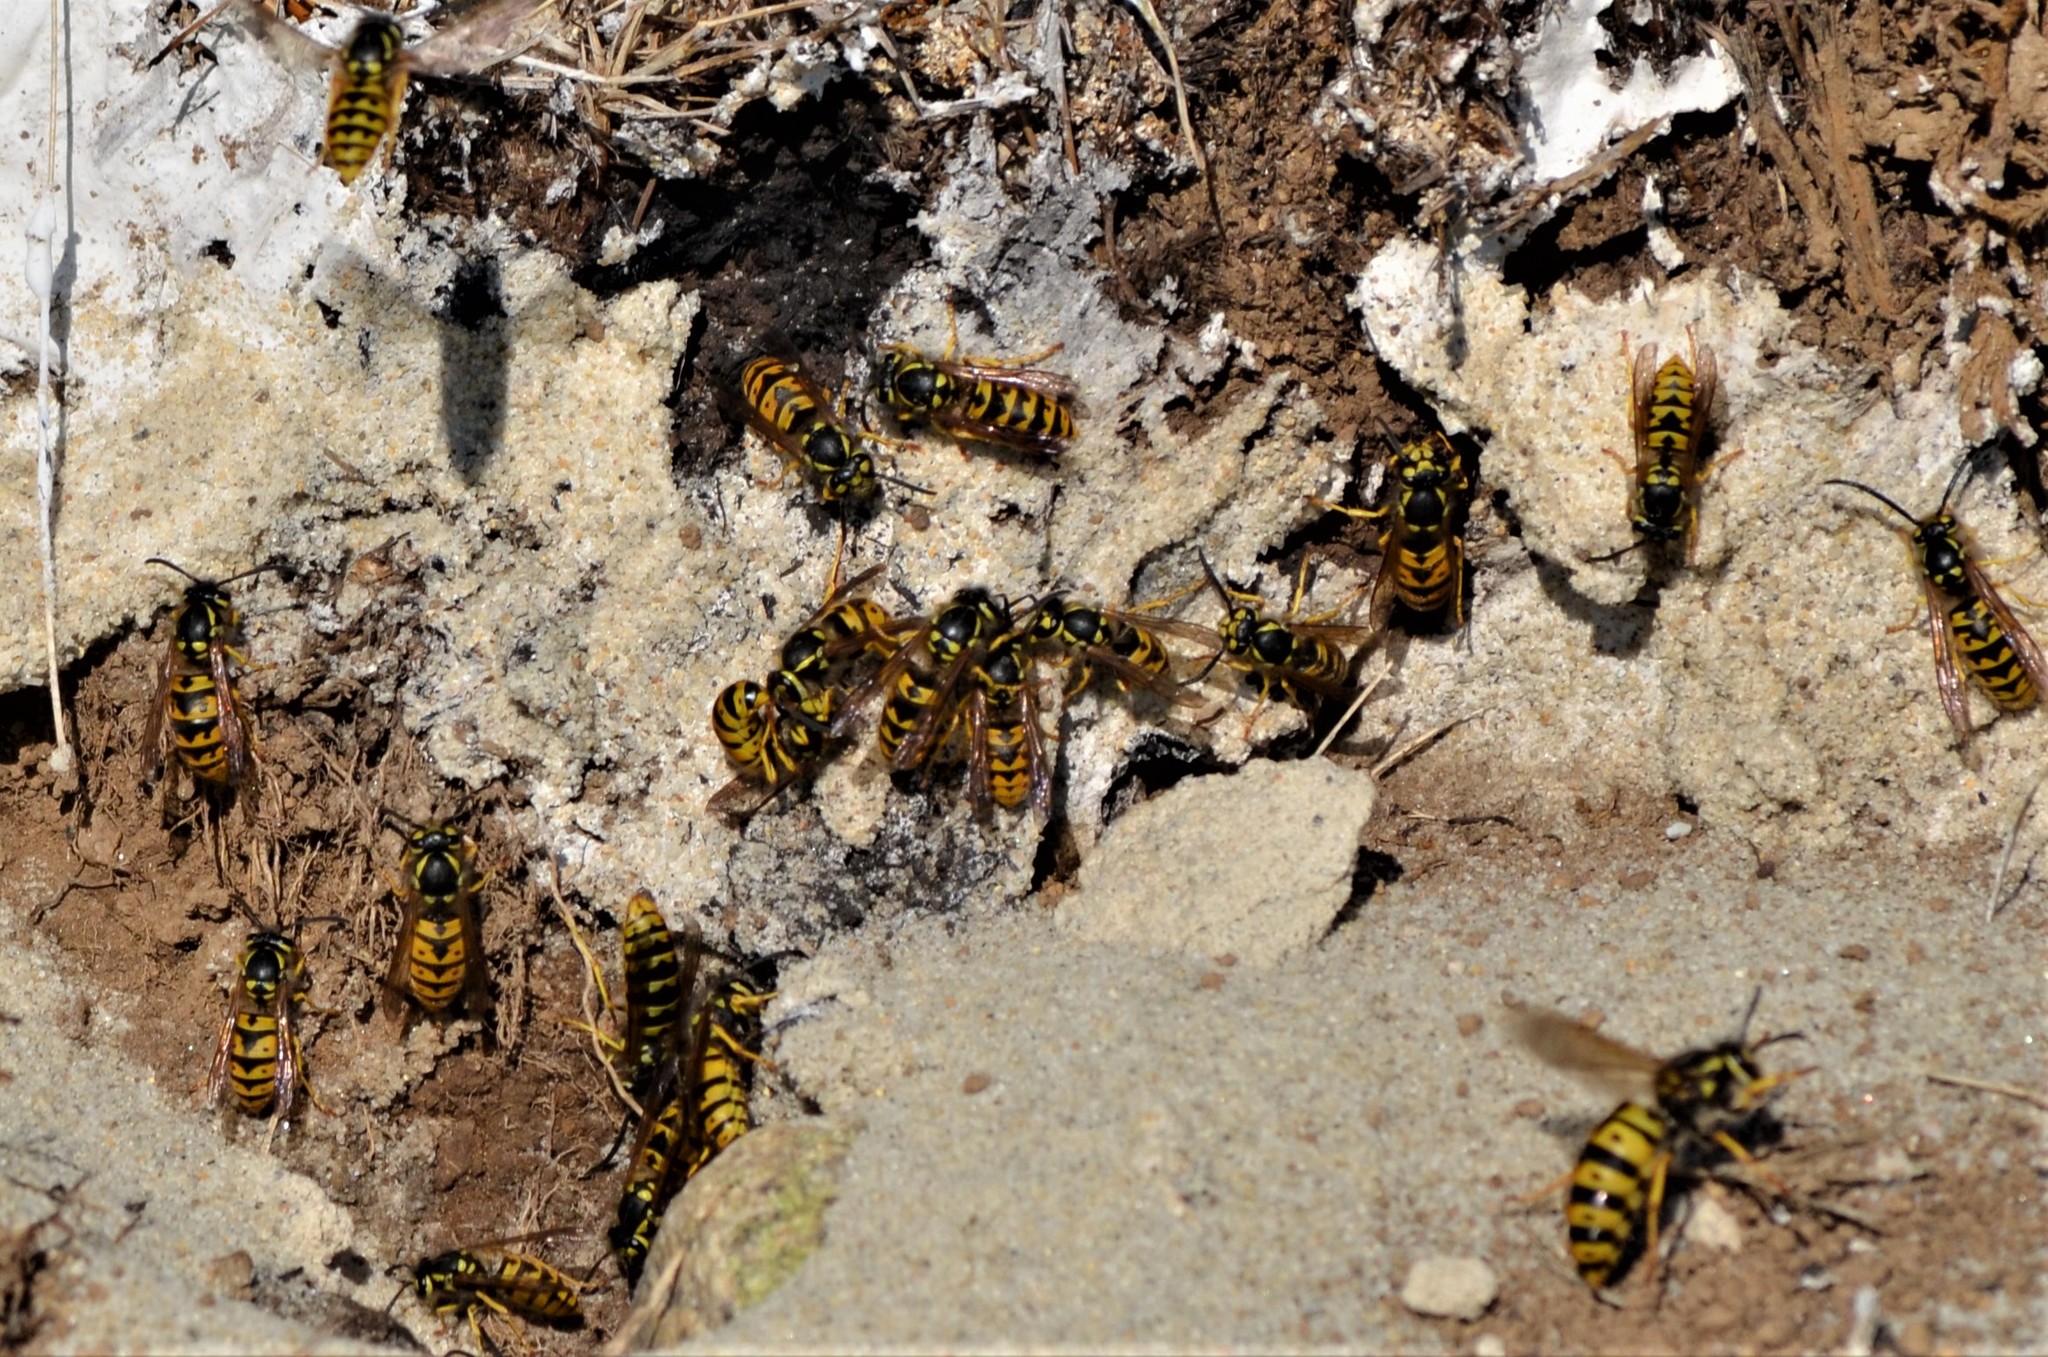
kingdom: Animalia
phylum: Arthropoda
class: Insecta
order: Hymenoptera
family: Vespidae
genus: Vespula
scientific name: Vespula germanica
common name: German wasp
